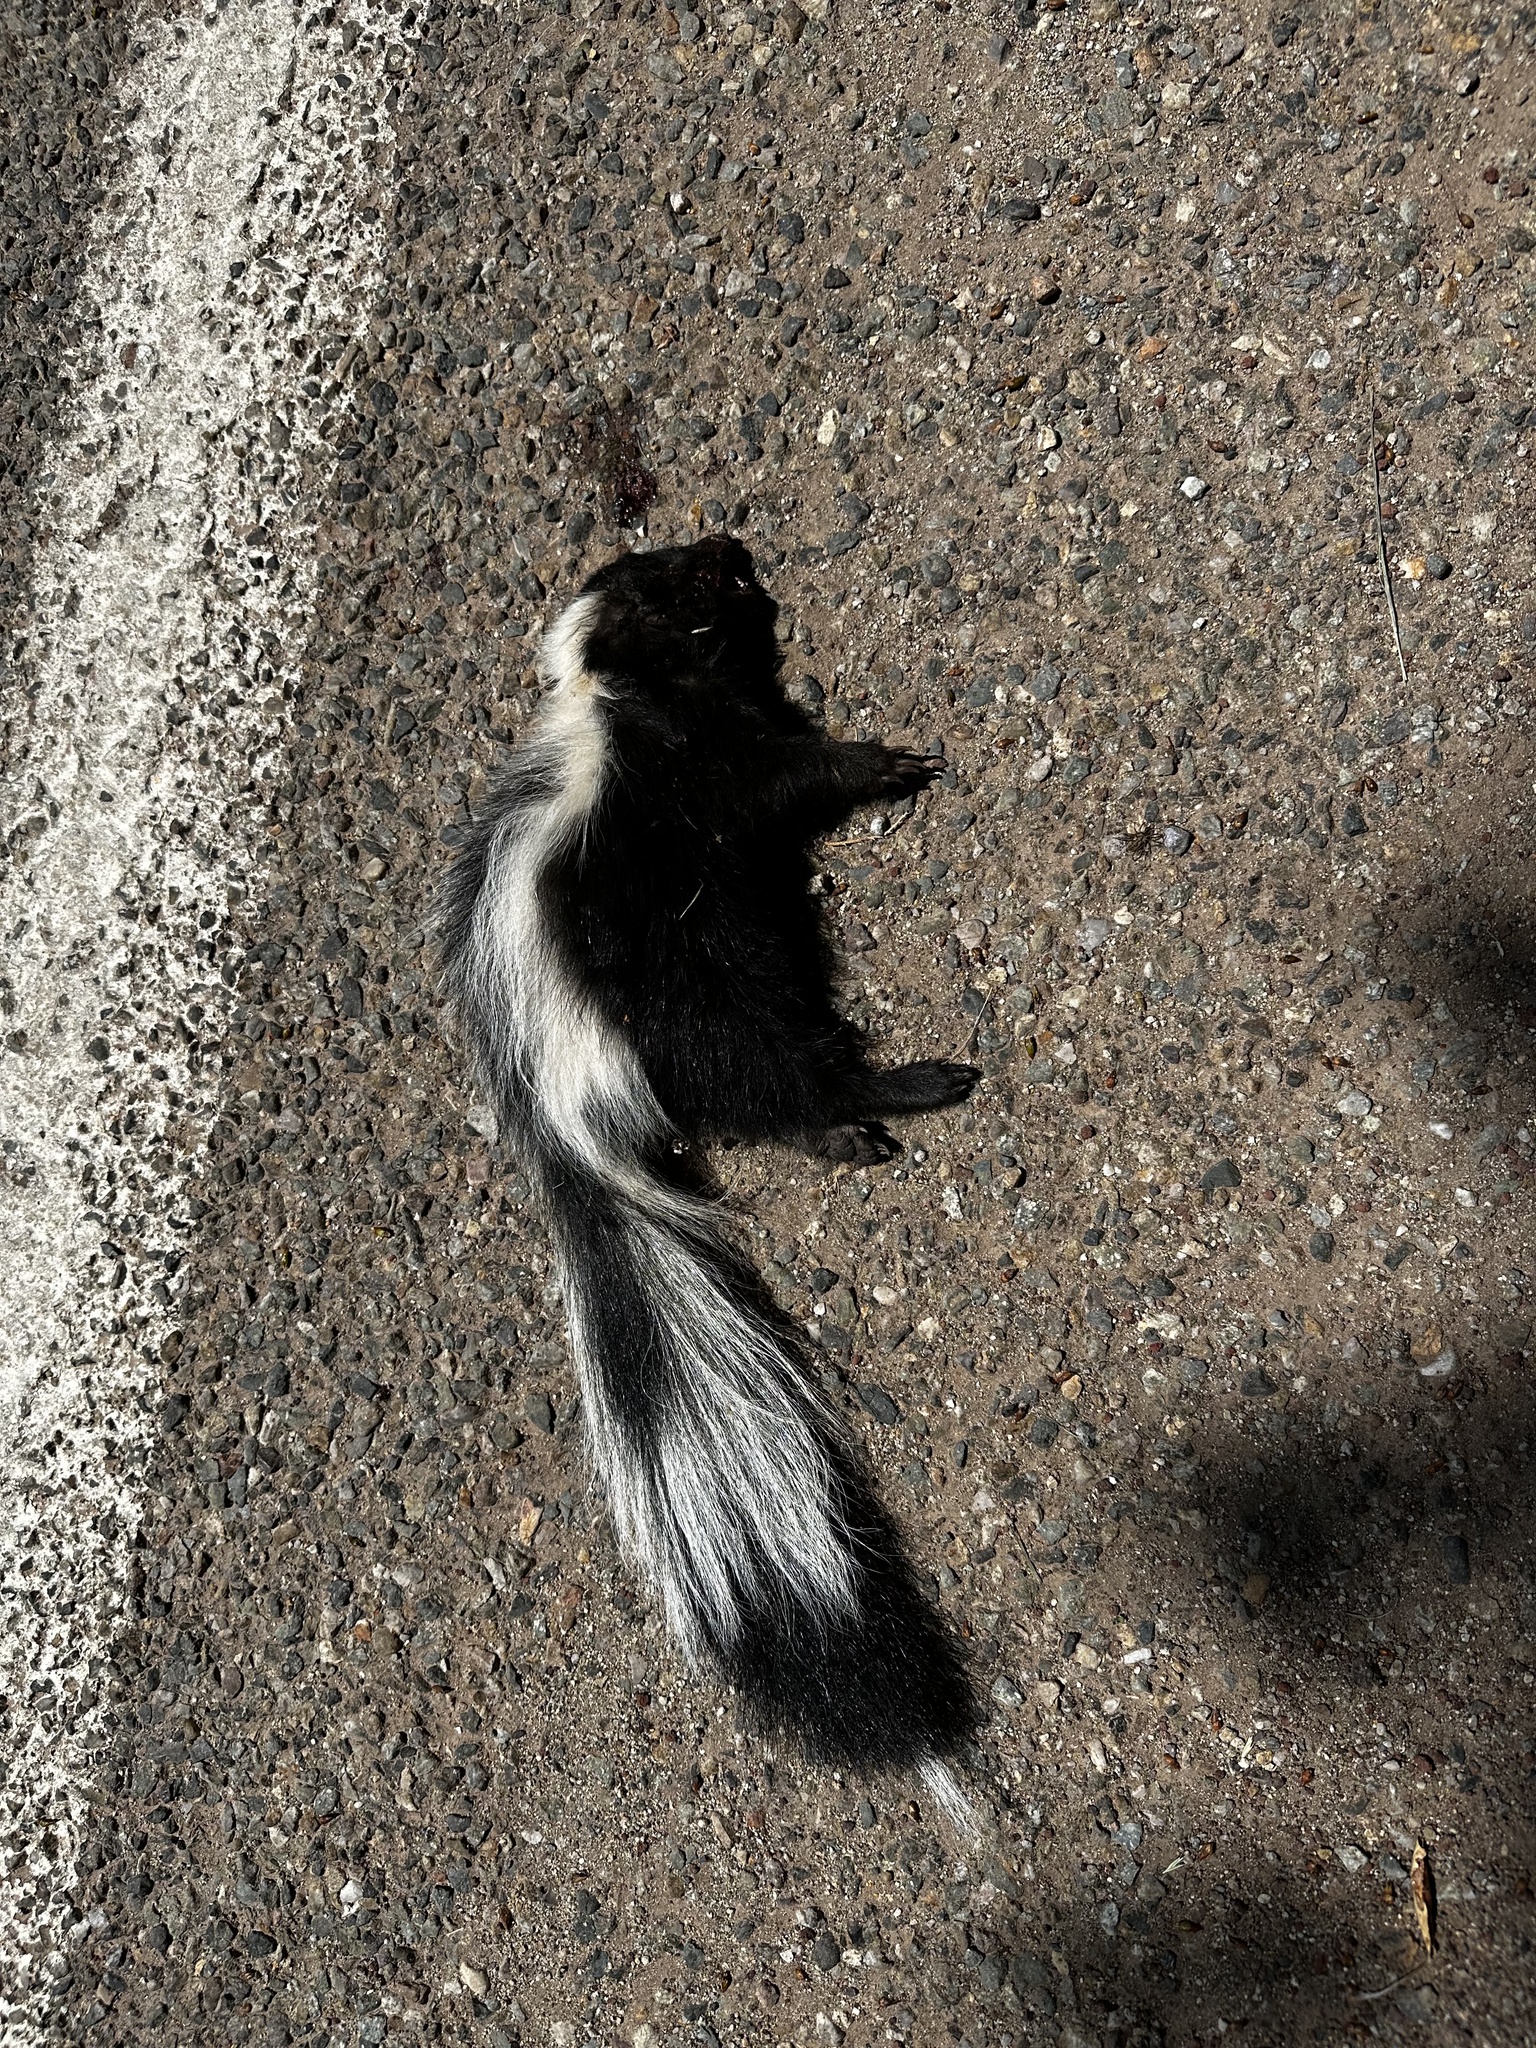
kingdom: Animalia
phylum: Chordata
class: Mammalia
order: Carnivora
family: Mephitidae
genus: Mephitis
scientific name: Mephitis mephitis
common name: Striped skunk
